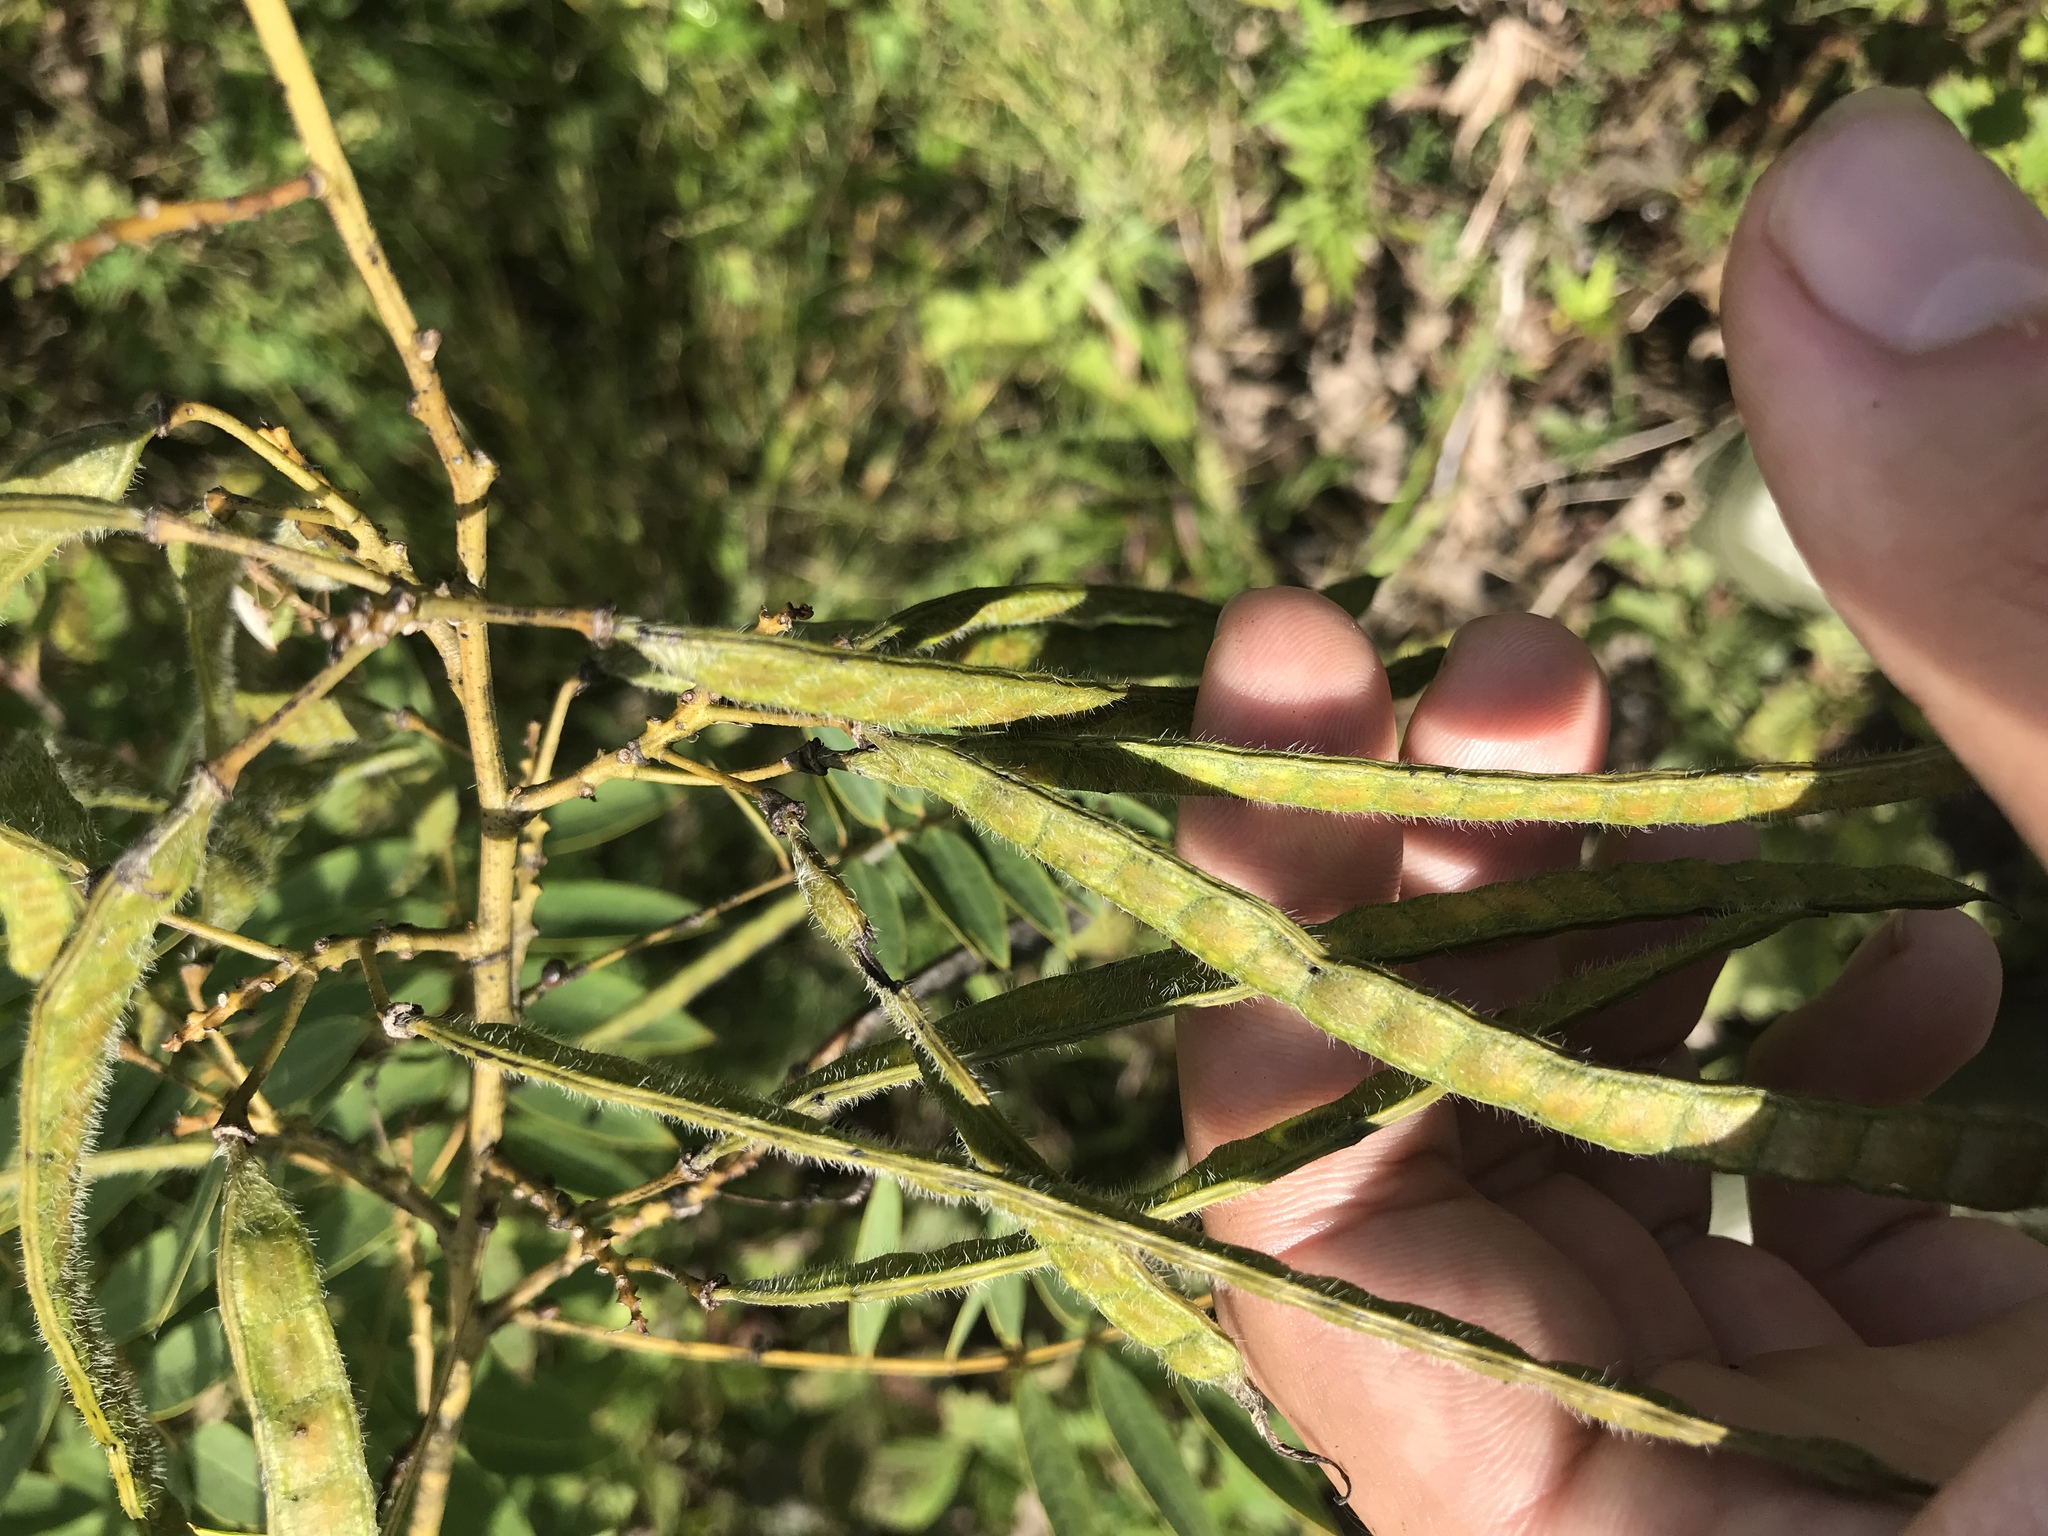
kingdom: Plantae
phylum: Tracheophyta
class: Magnoliopsida
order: Fabales
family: Fabaceae
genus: Senna
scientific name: Senna hebecarpa
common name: Wild senna
